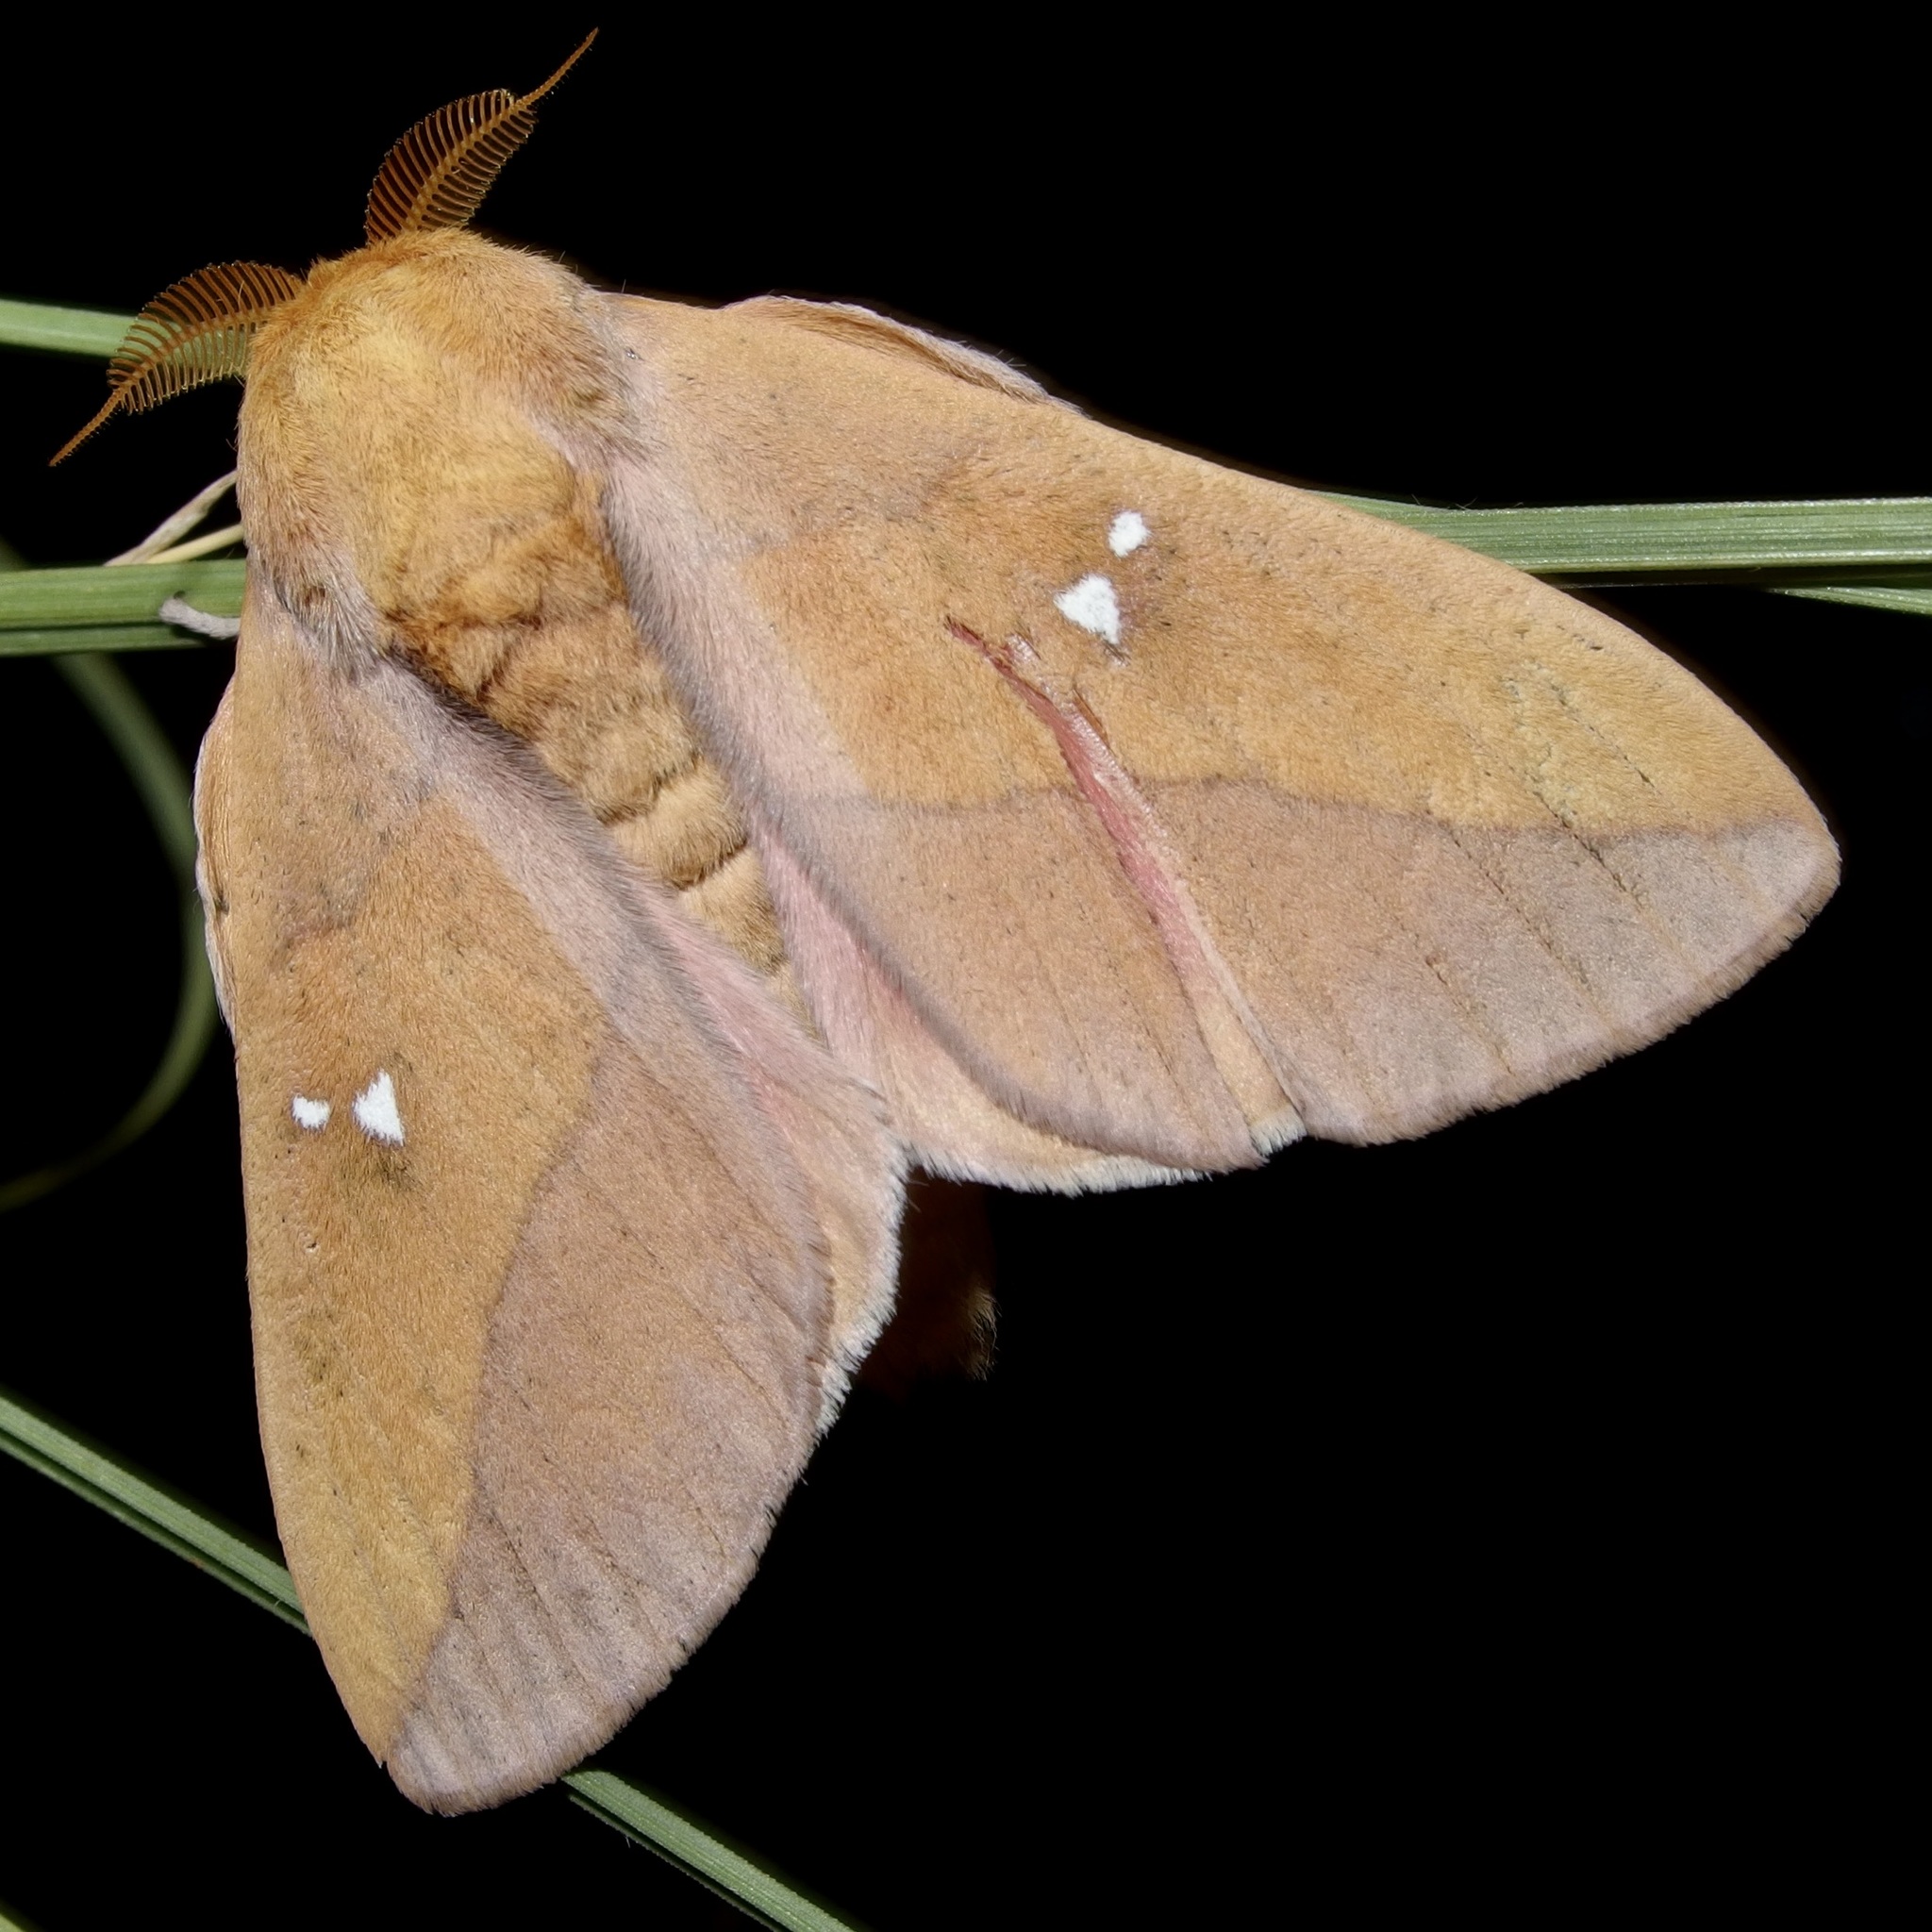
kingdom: Animalia
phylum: Arthropoda
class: Insecta
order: Lepidoptera
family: Saturniidae
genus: Syssphinx
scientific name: Syssphinx montana
